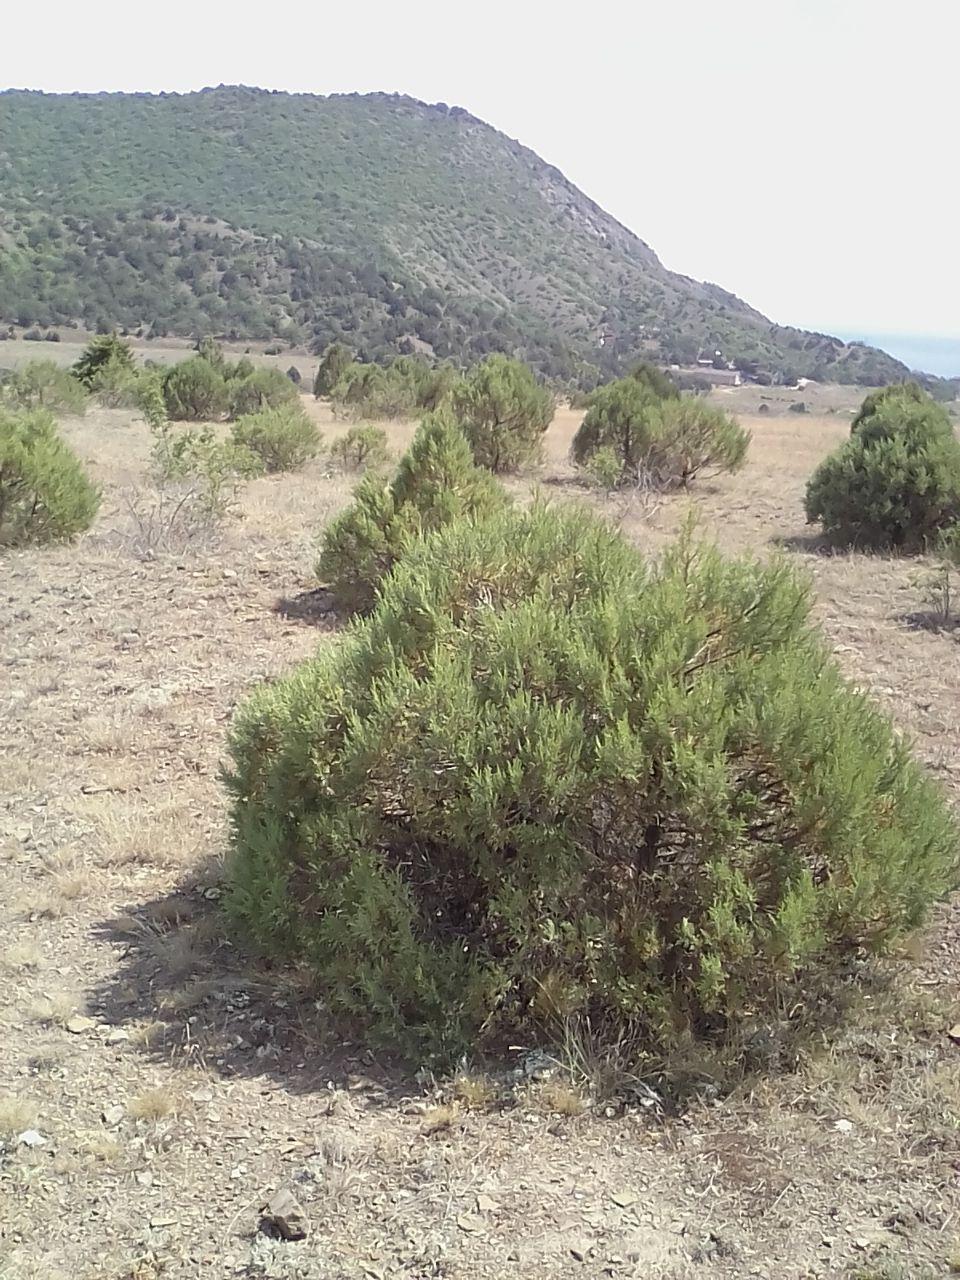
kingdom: Plantae
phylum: Tracheophyta
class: Pinopsida
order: Pinales
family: Cupressaceae
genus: Juniperus
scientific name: Juniperus oxycedrus
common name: Prickly juniper
